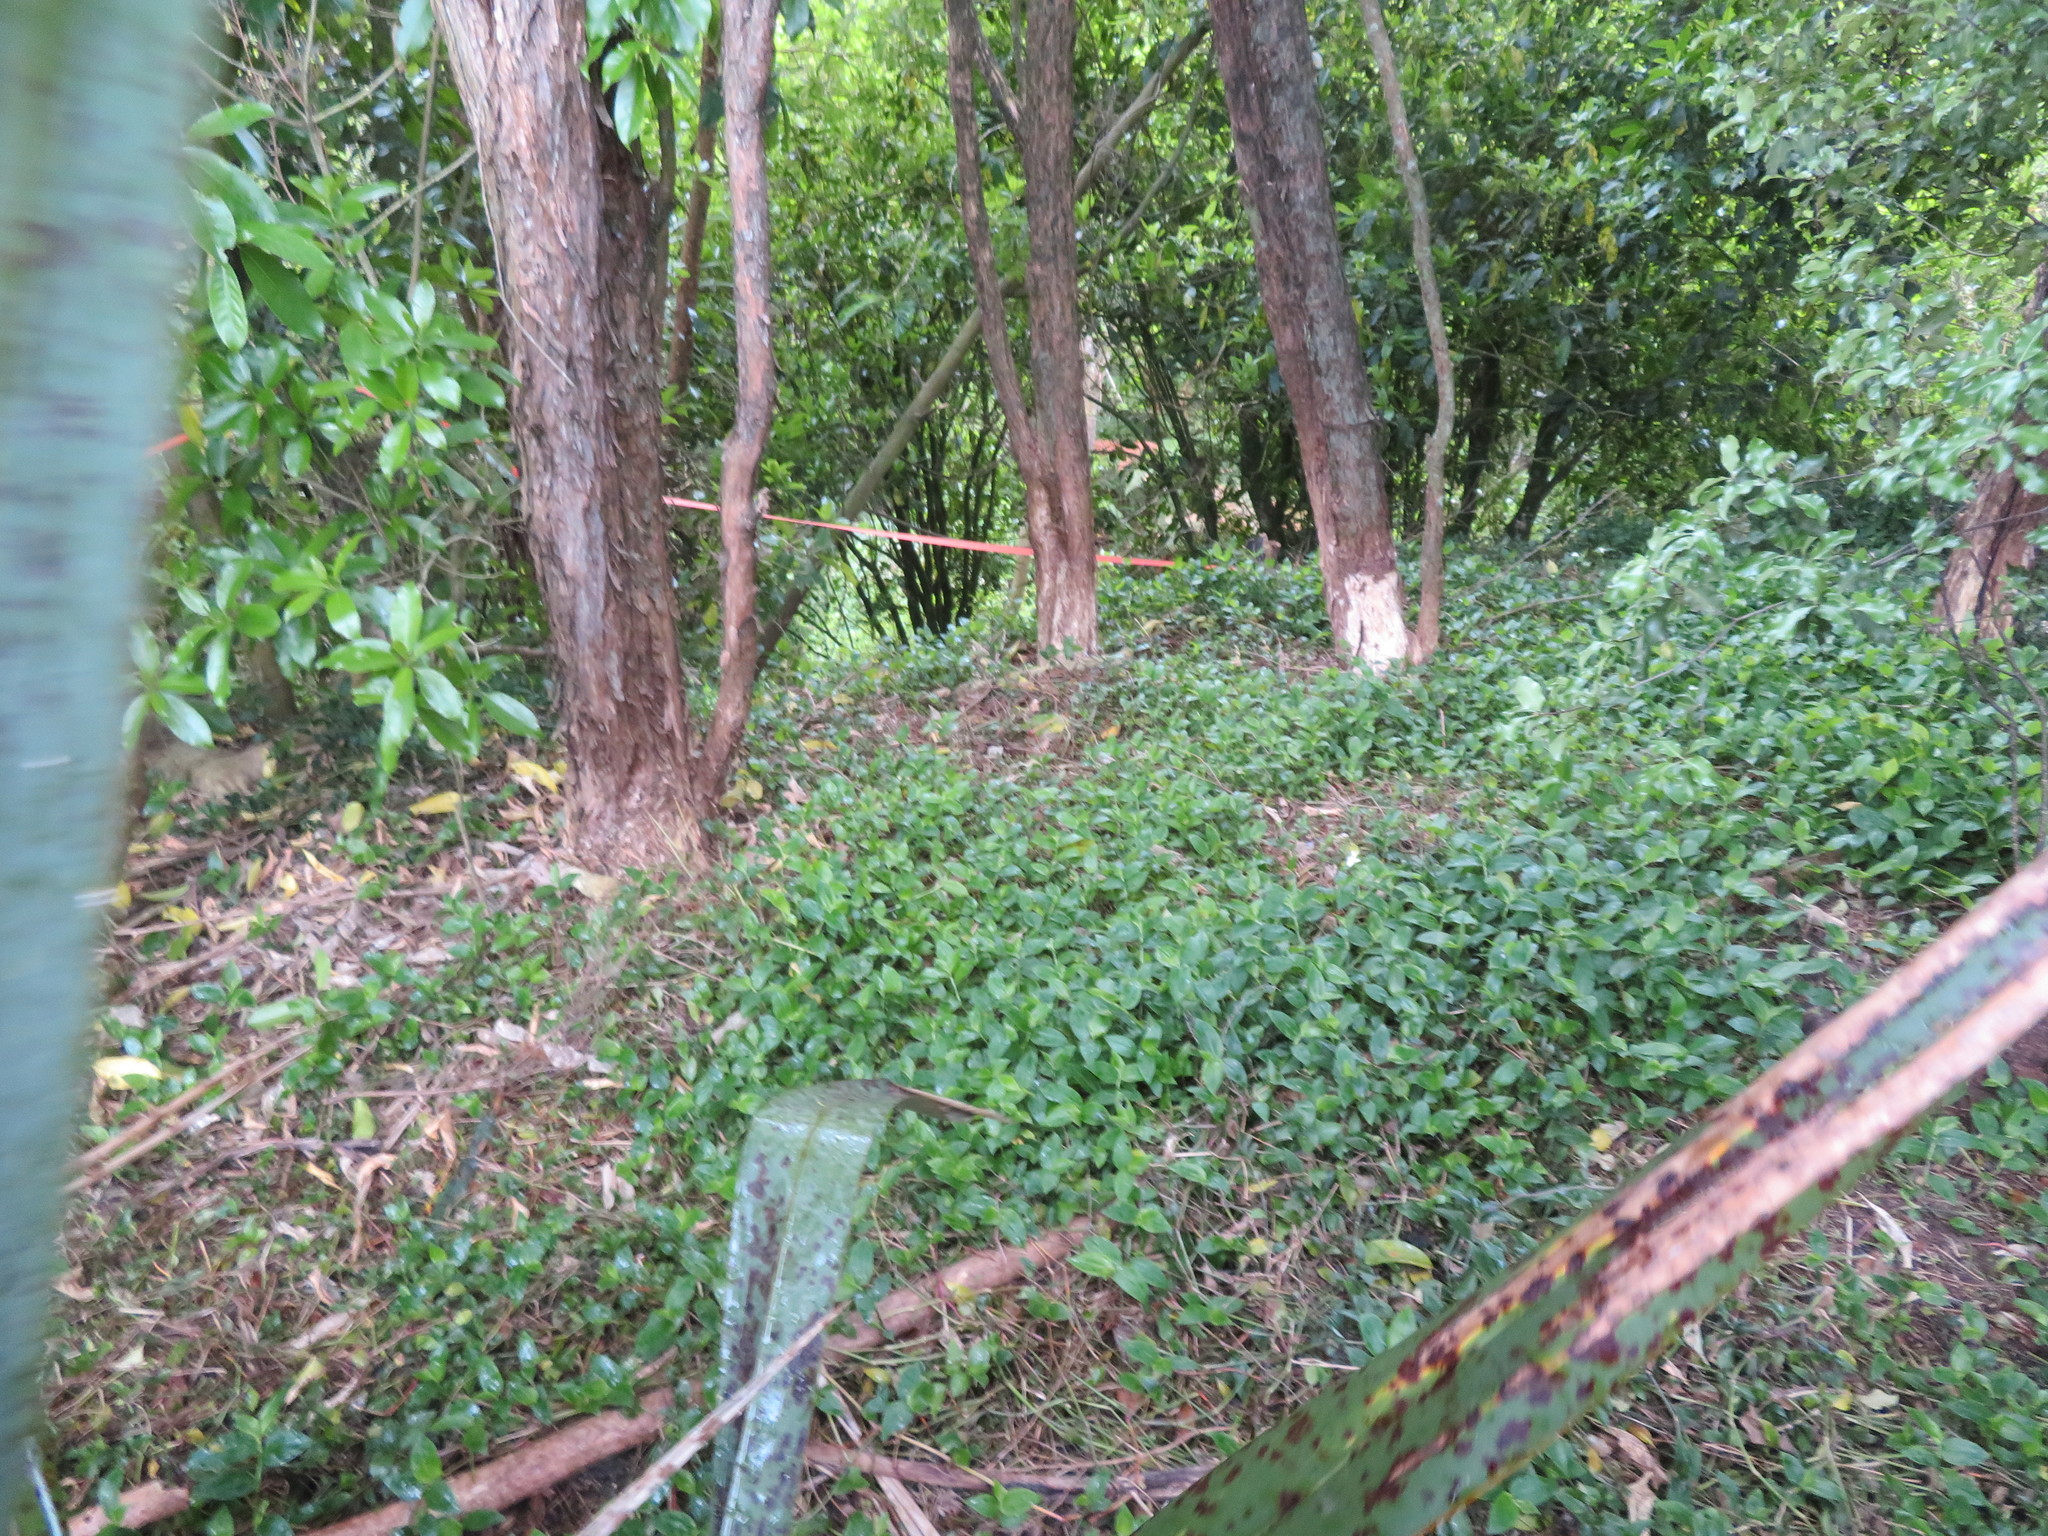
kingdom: Plantae
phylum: Tracheophyta
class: Magnoliopsida
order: Malpighiales
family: Violaceae
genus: Melicytus
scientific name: Melicytus ramiflorus
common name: Mahoe
